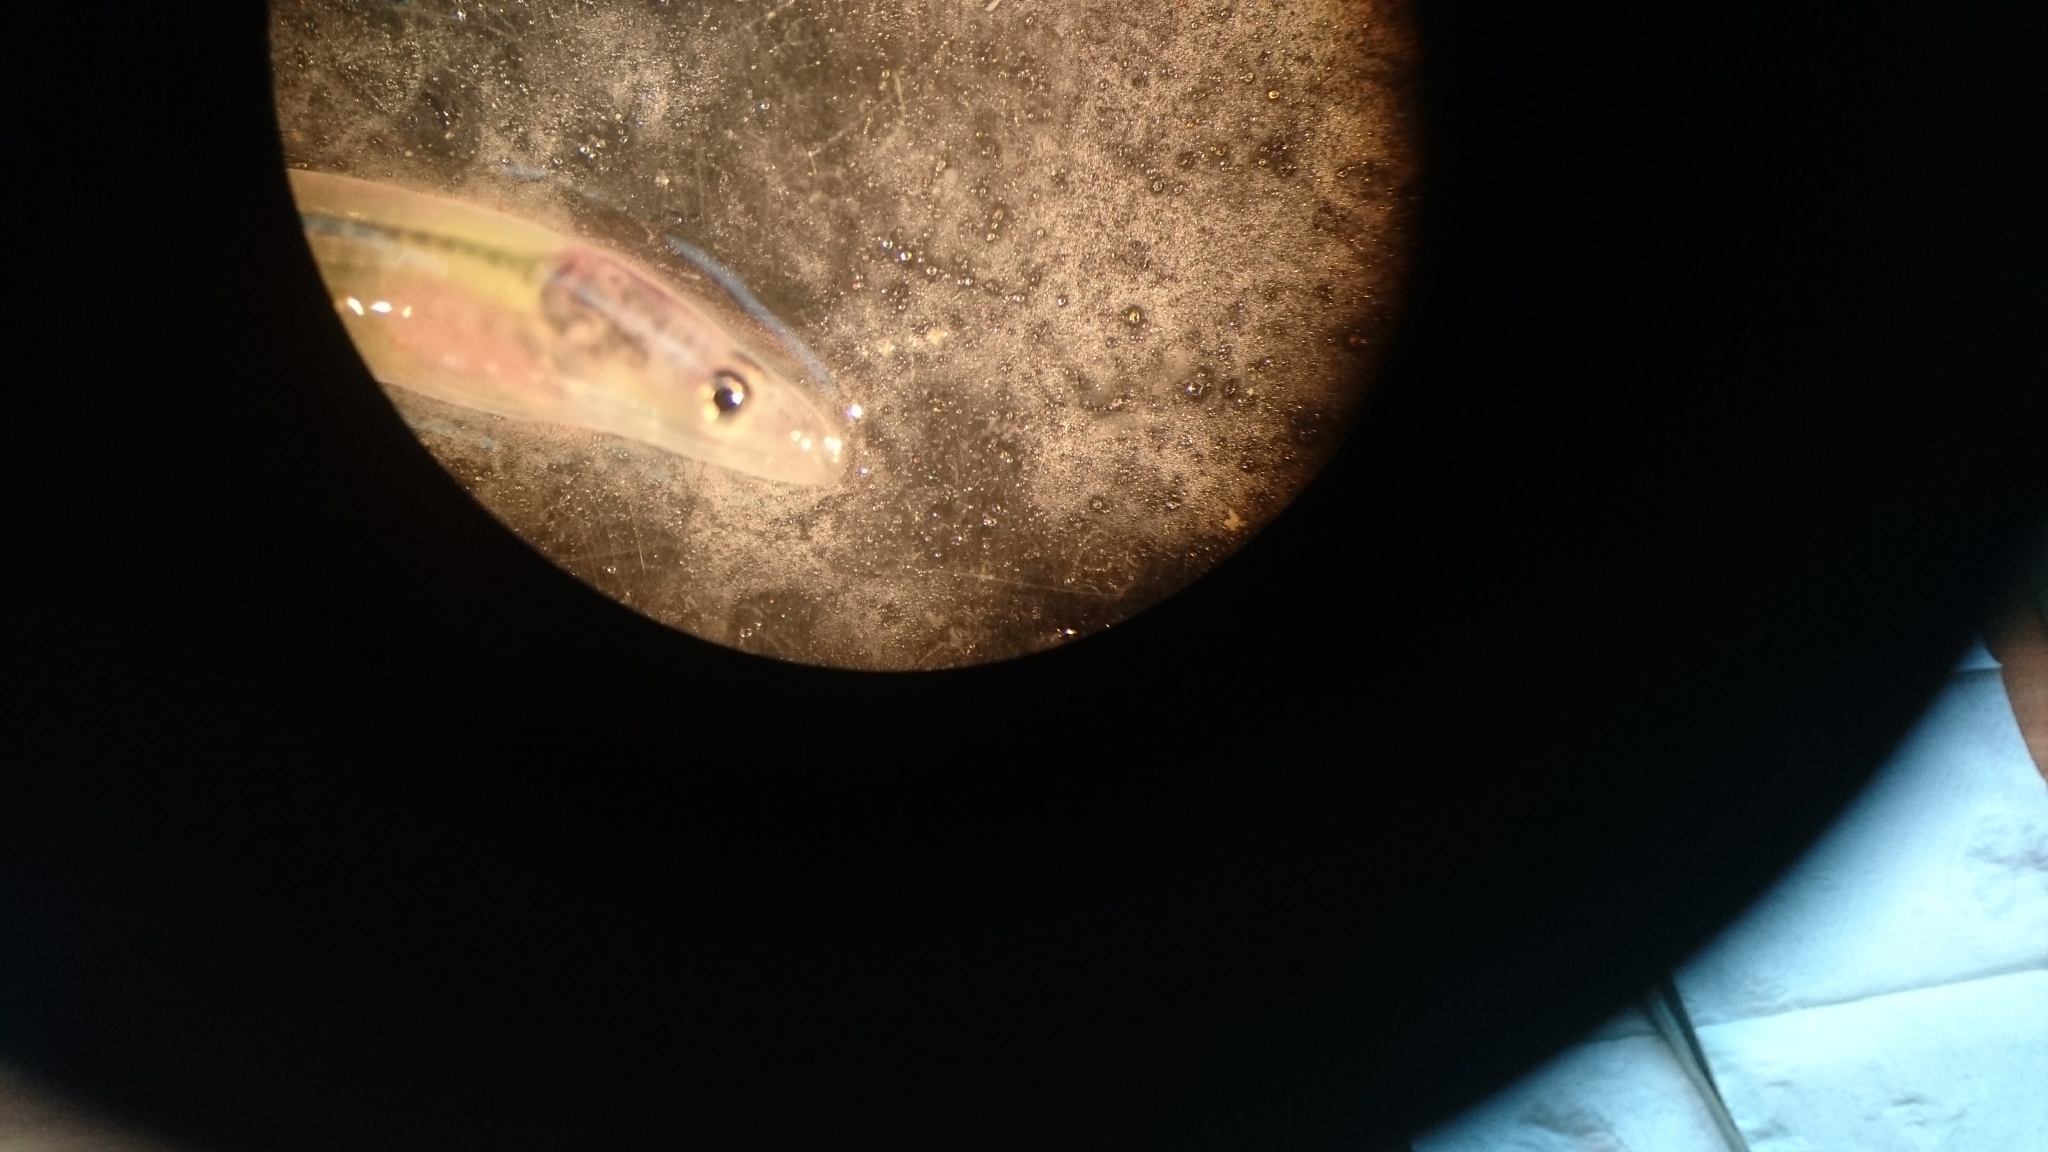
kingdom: Animalia
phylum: Chordata
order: Anguilliformes
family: Anguillidae
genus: Anguilla
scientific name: Anguilla anguilla
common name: European eel
